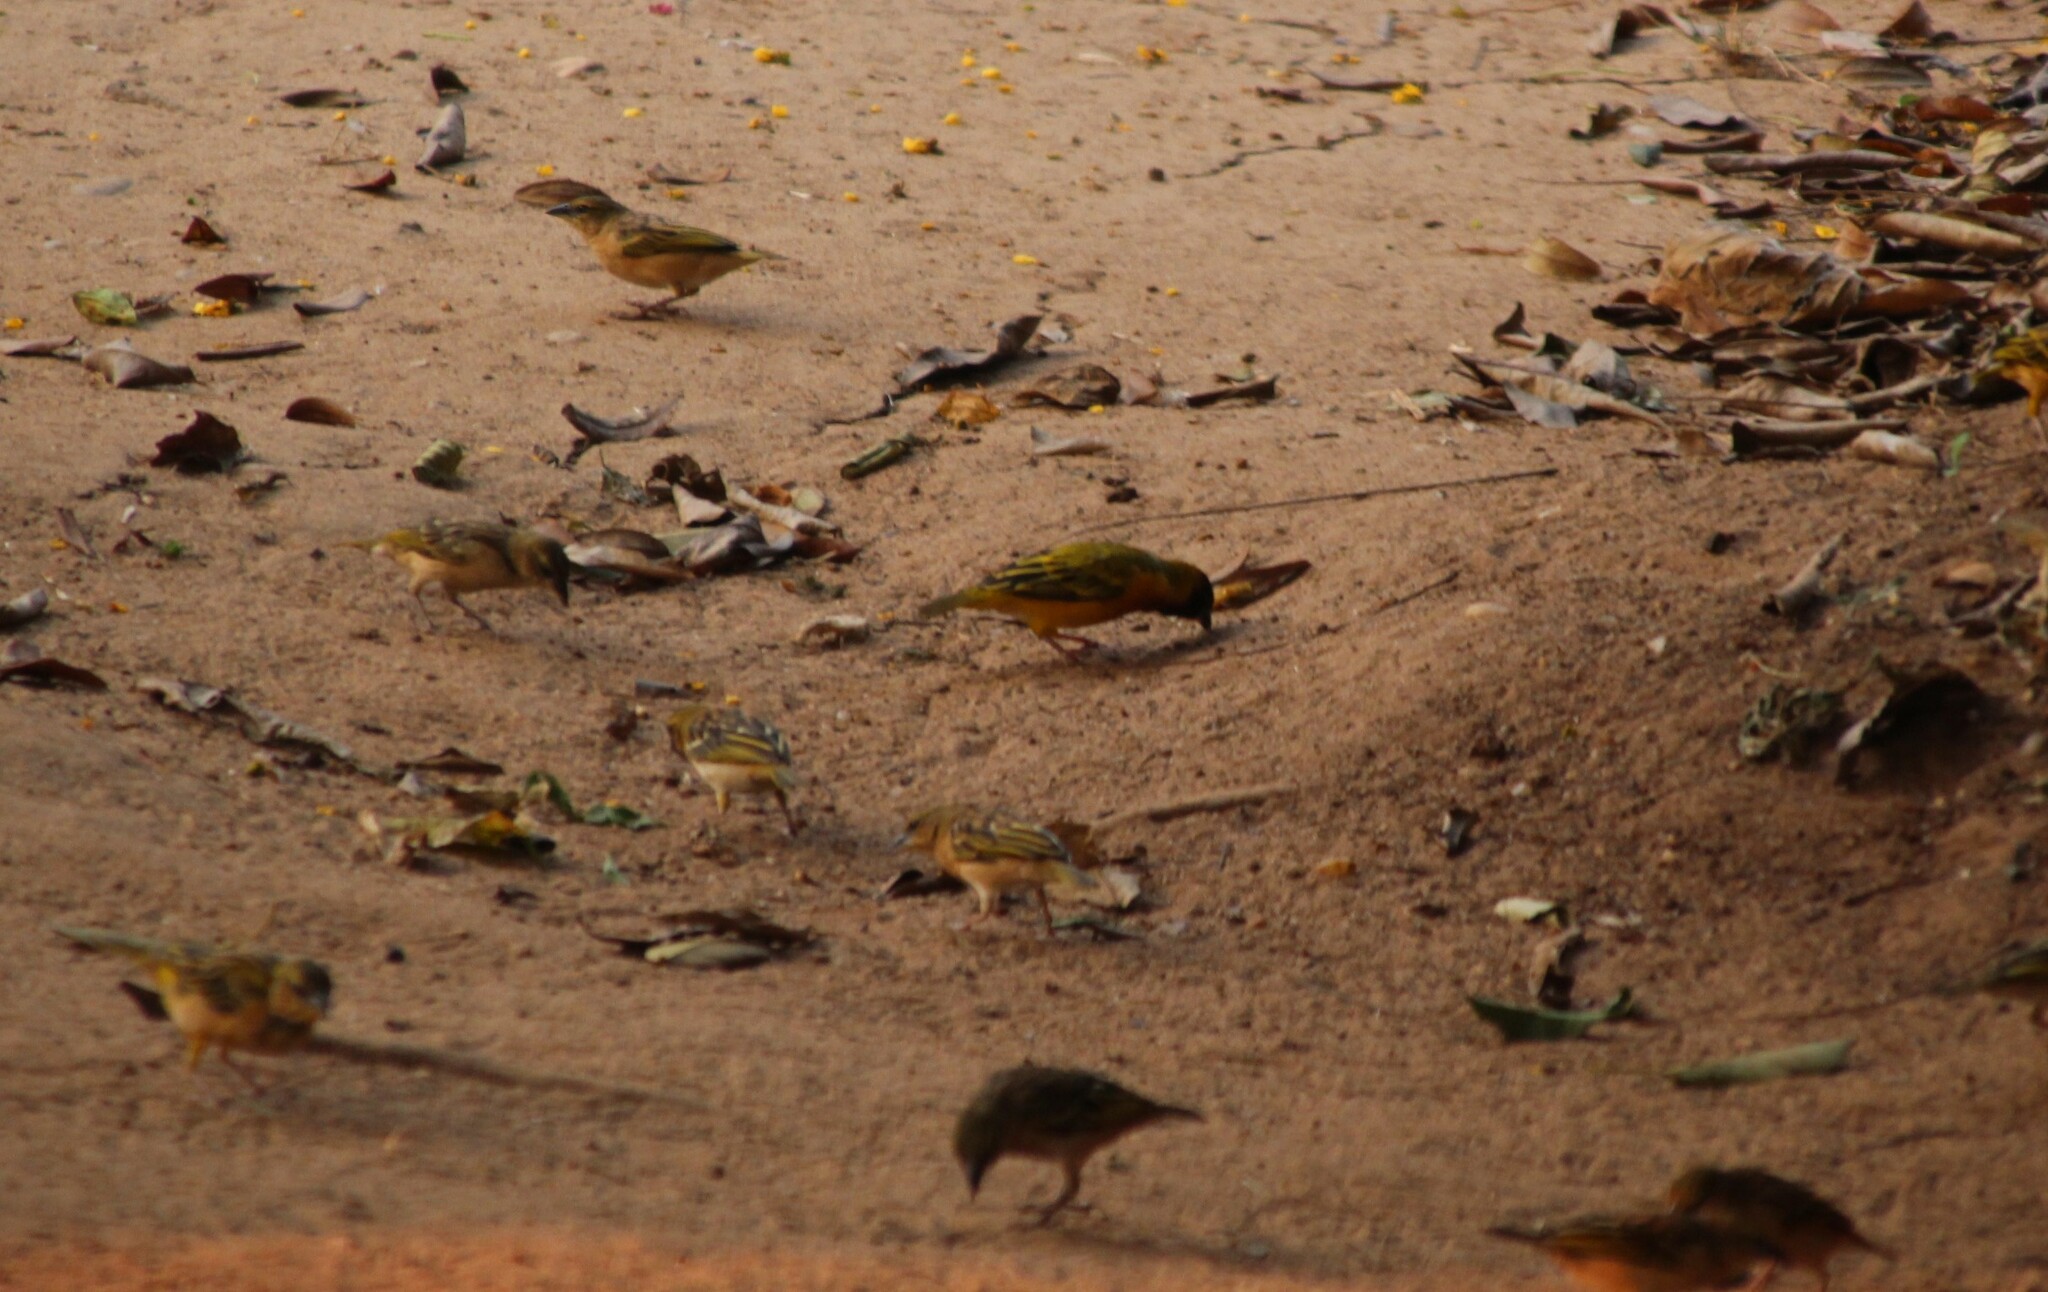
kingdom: Animalia
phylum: Chordata
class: Aves
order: Passeriformes
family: Ploceidae
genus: Ploceus
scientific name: Ploceus melanocephalus
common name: Black-headed weaver
